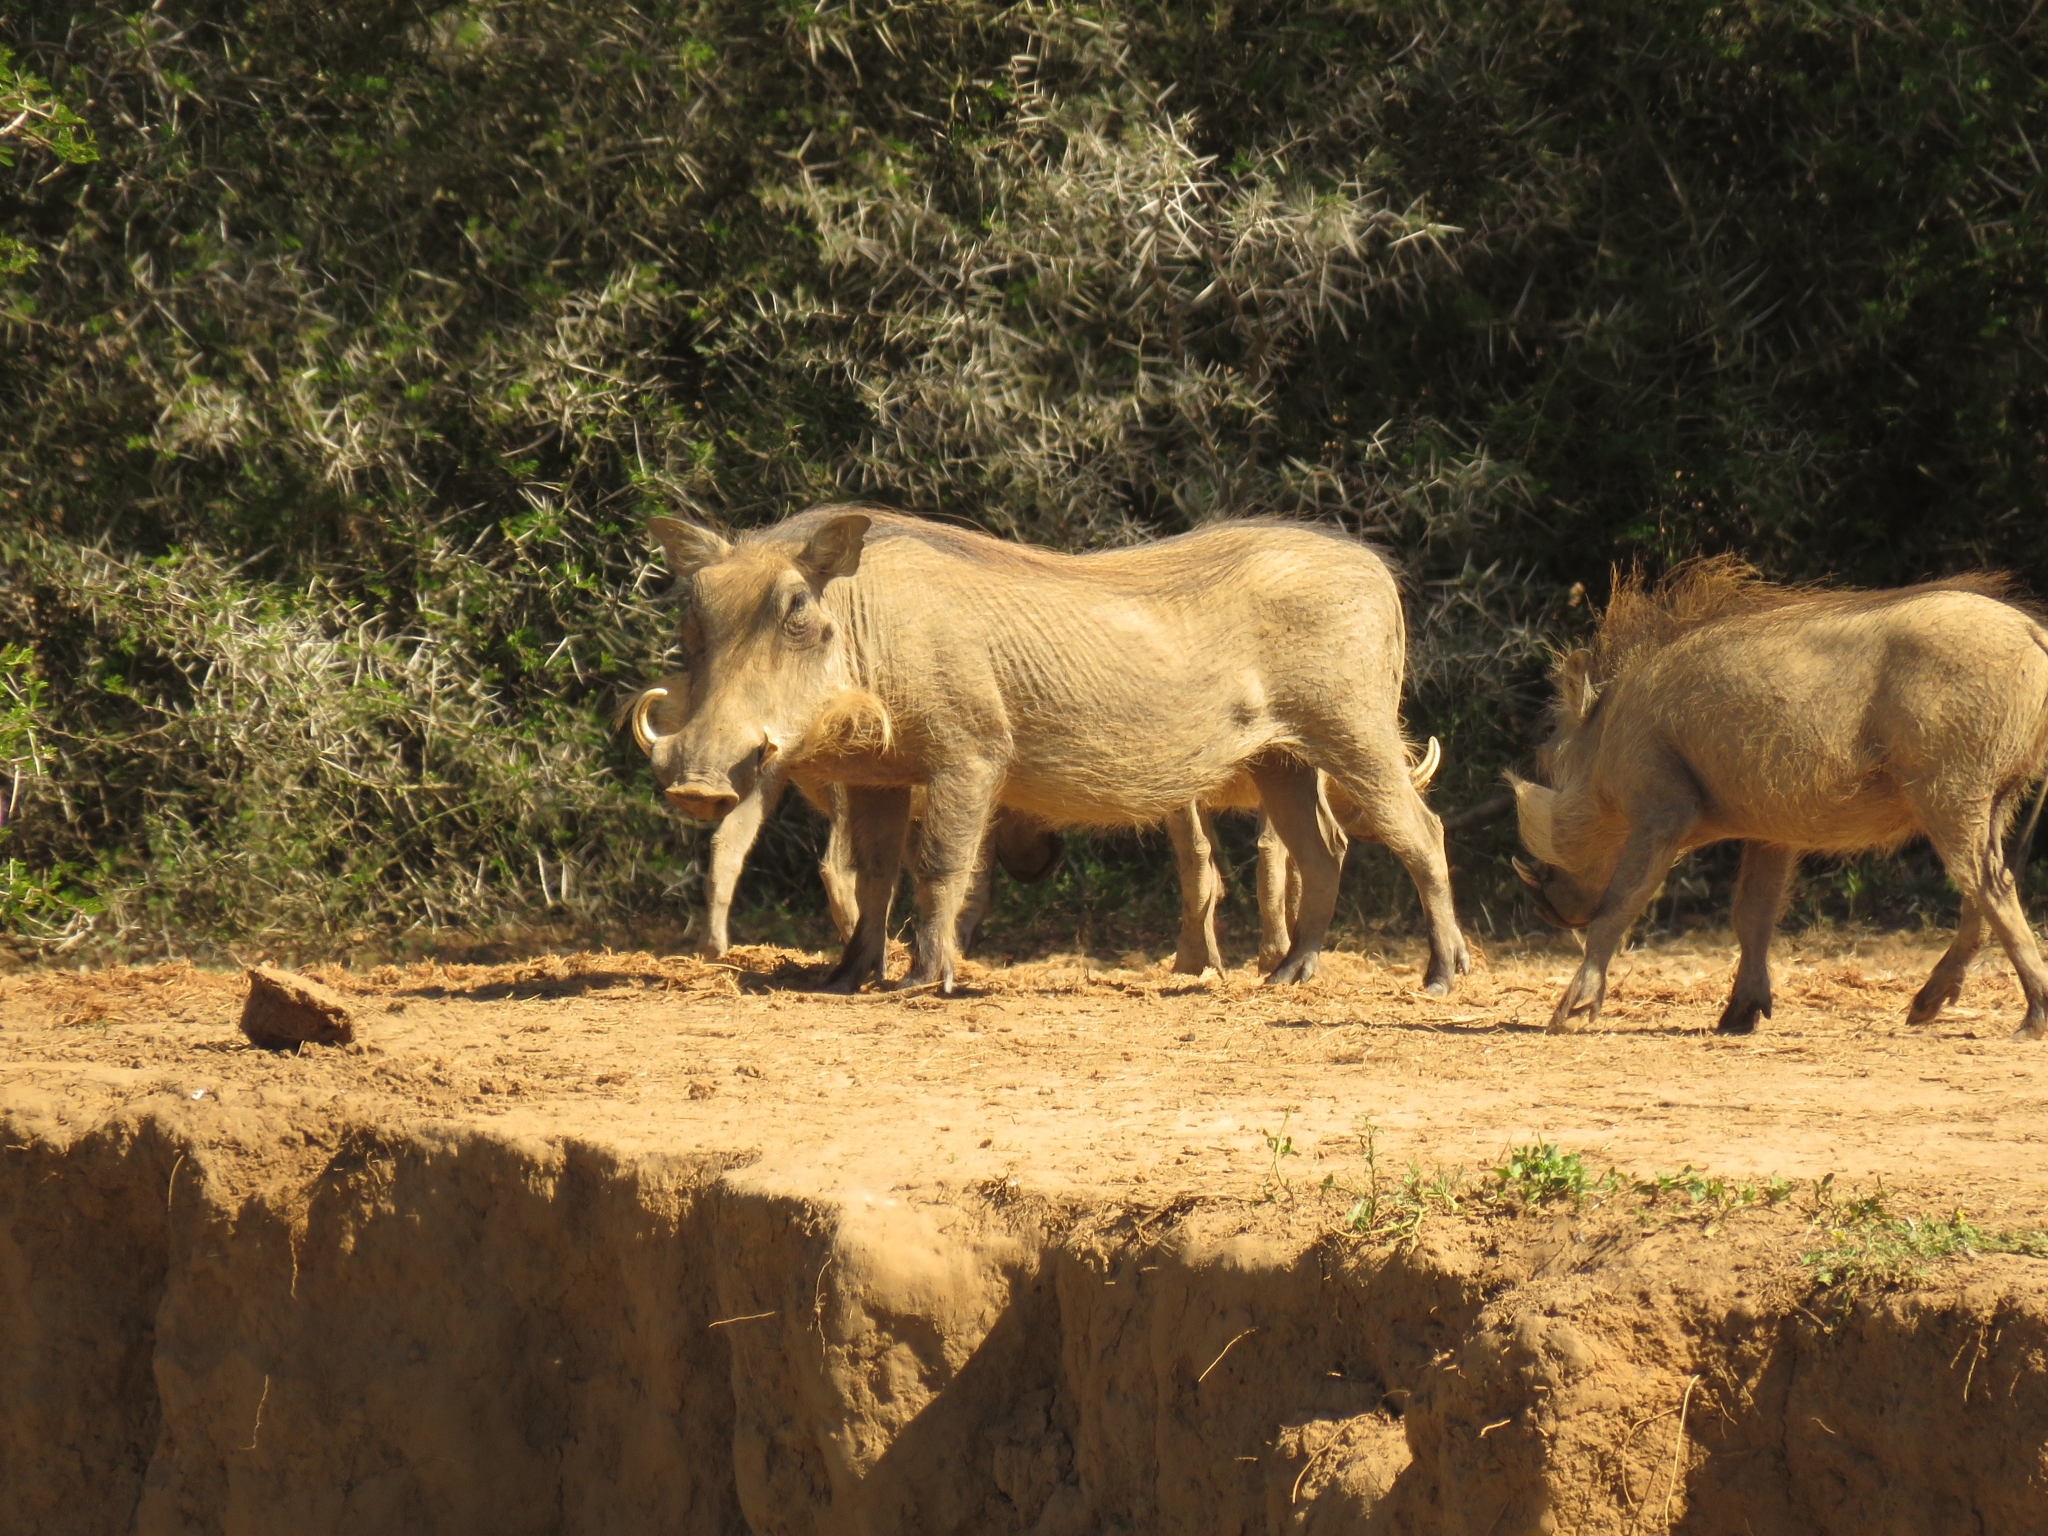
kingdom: Animalia
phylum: Chordata
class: Mammalia
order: Artiodactyla
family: Suidae
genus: Phacochoerus
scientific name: Phacochoerus africanus
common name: Common warthog
